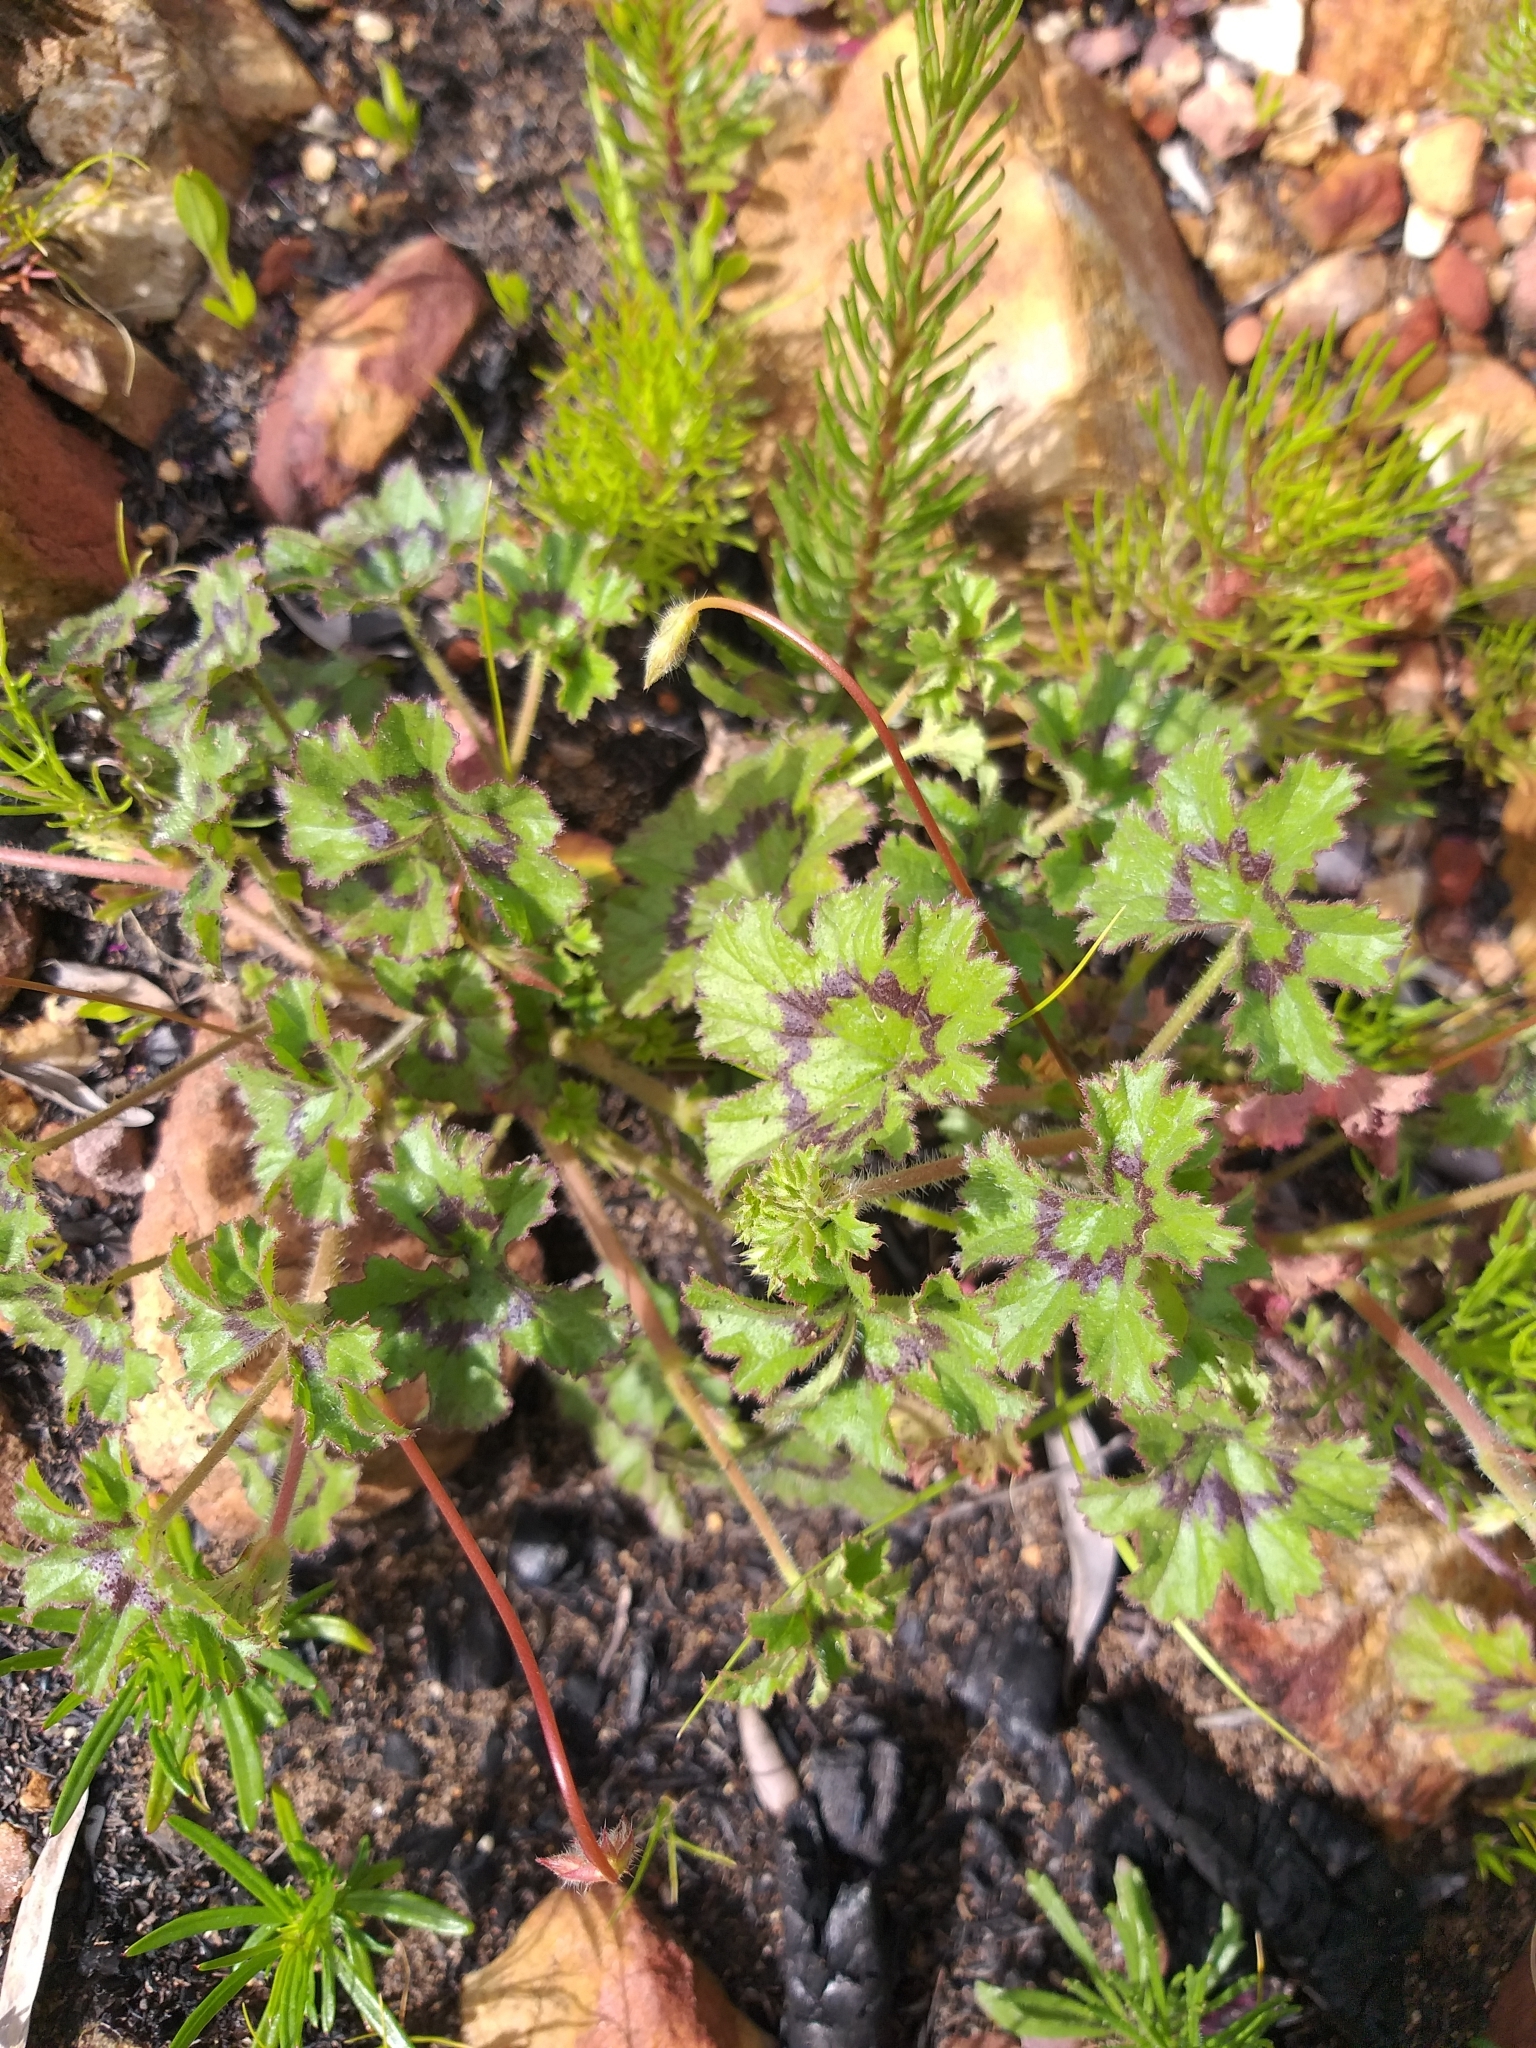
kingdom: Plantae
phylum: Tracheophyta
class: Magnoliopsida
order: Geraniales
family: Geraniaceae
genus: Pelargonium
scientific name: Pelargonium elongatum
